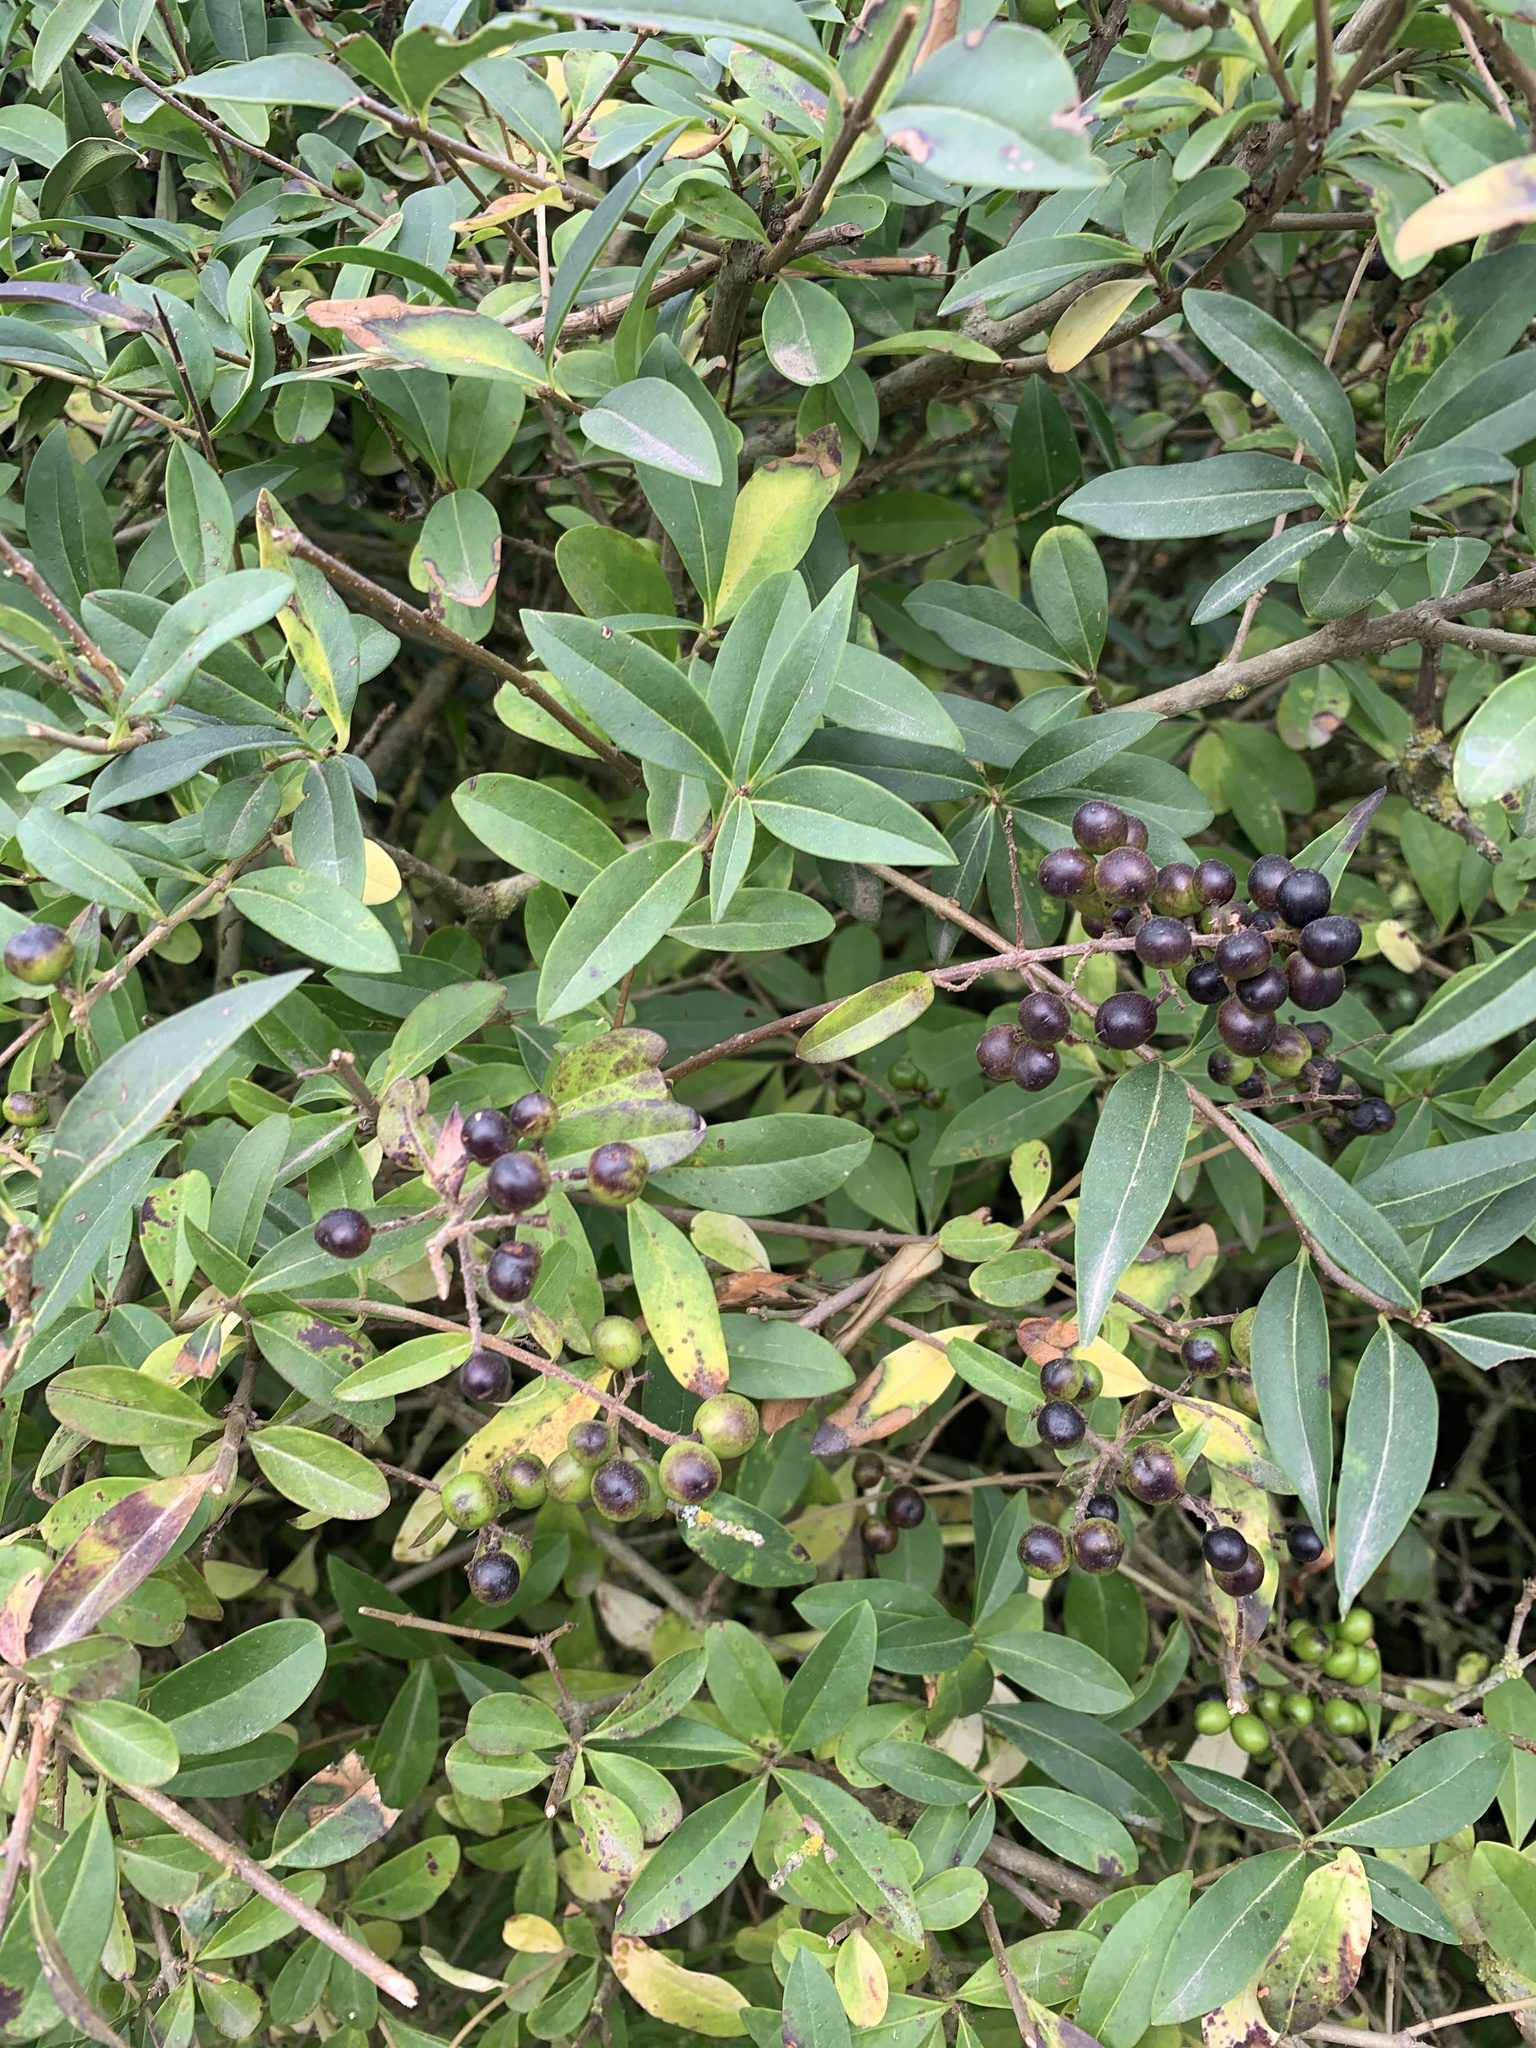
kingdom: Plantae
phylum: Tracheophyta
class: Magnoliopsida
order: Lamiales
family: Oleaceae
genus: Ligustrum
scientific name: Ligustrum vulgare
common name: Wild privet
